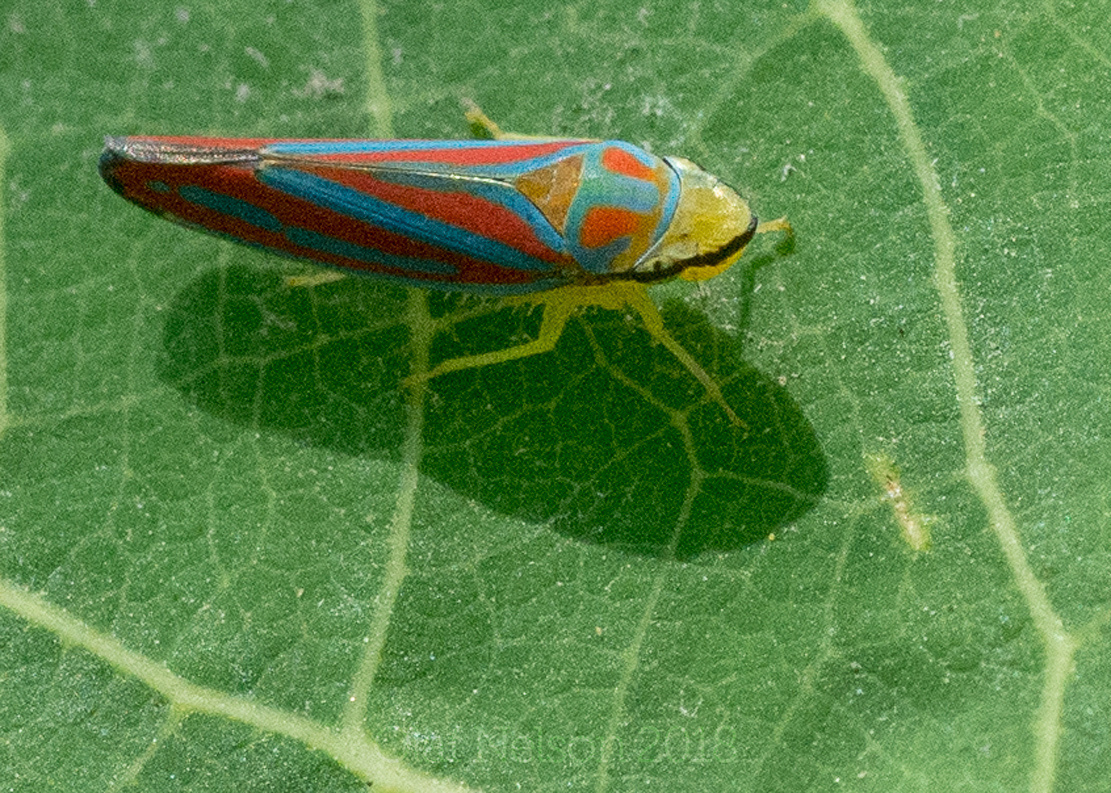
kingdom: Animalia
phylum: Arthropoda
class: Insecta
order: Hemiptera
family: Cicadellidae
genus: Graphocephala
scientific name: Graphocephala coccinea
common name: Candy-striped leafhopper
